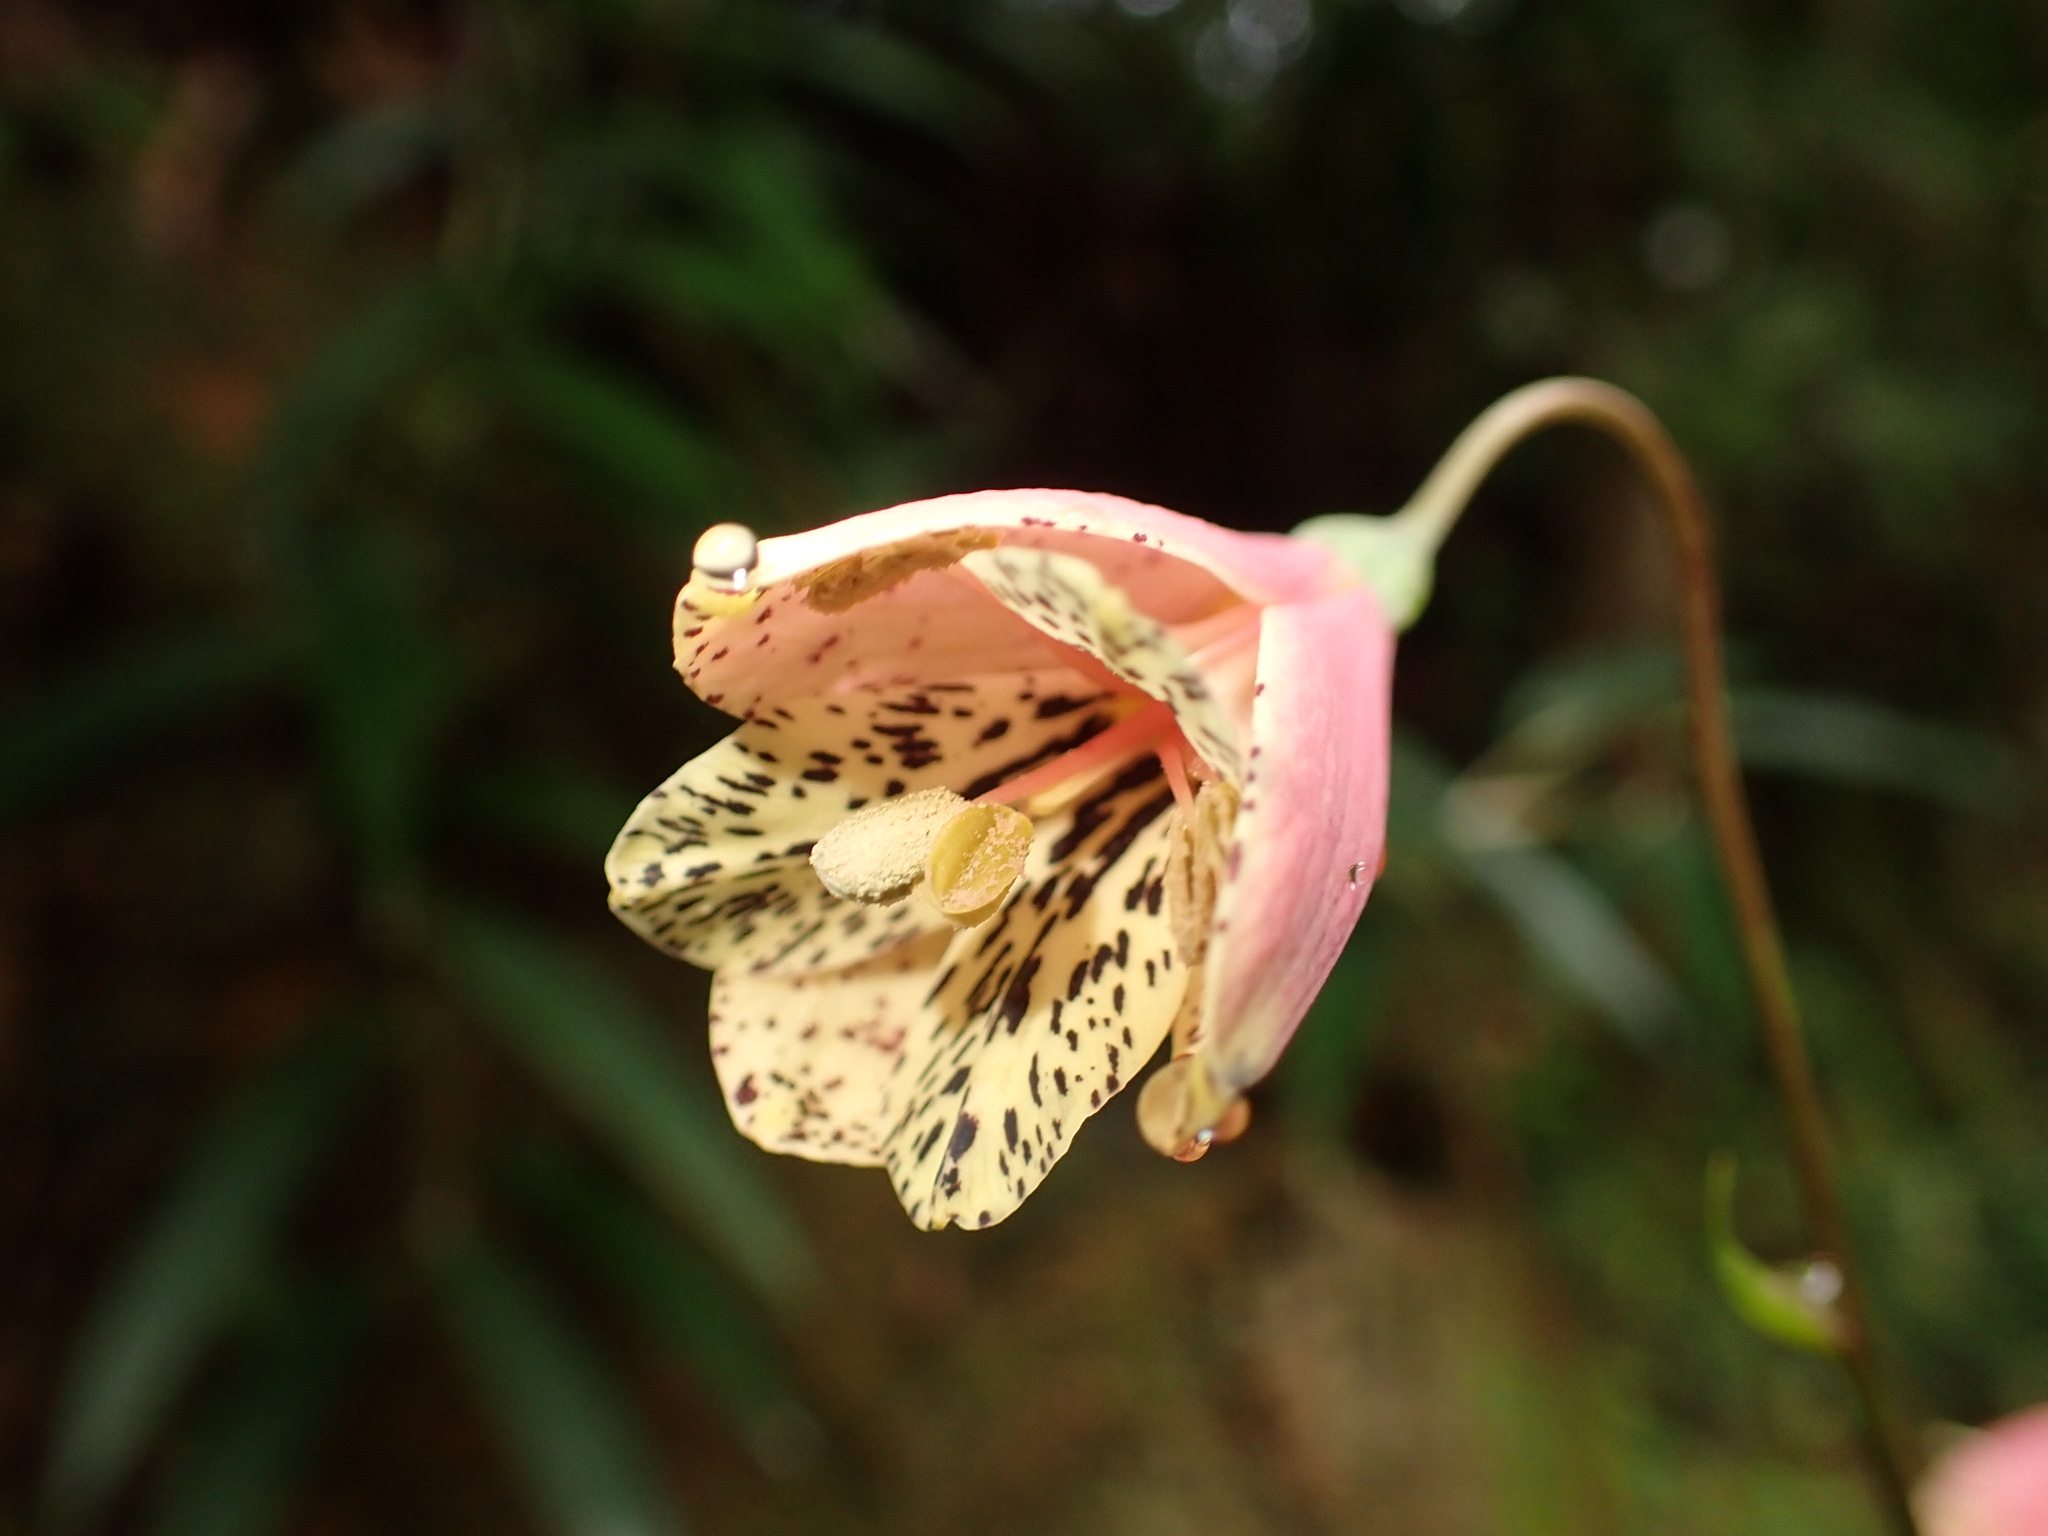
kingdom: Plantae
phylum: Tracheophyta
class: Liliopsida
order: Liliales
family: Alstroemeriaceae
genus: Bomarea
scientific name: Bomarea edulis
